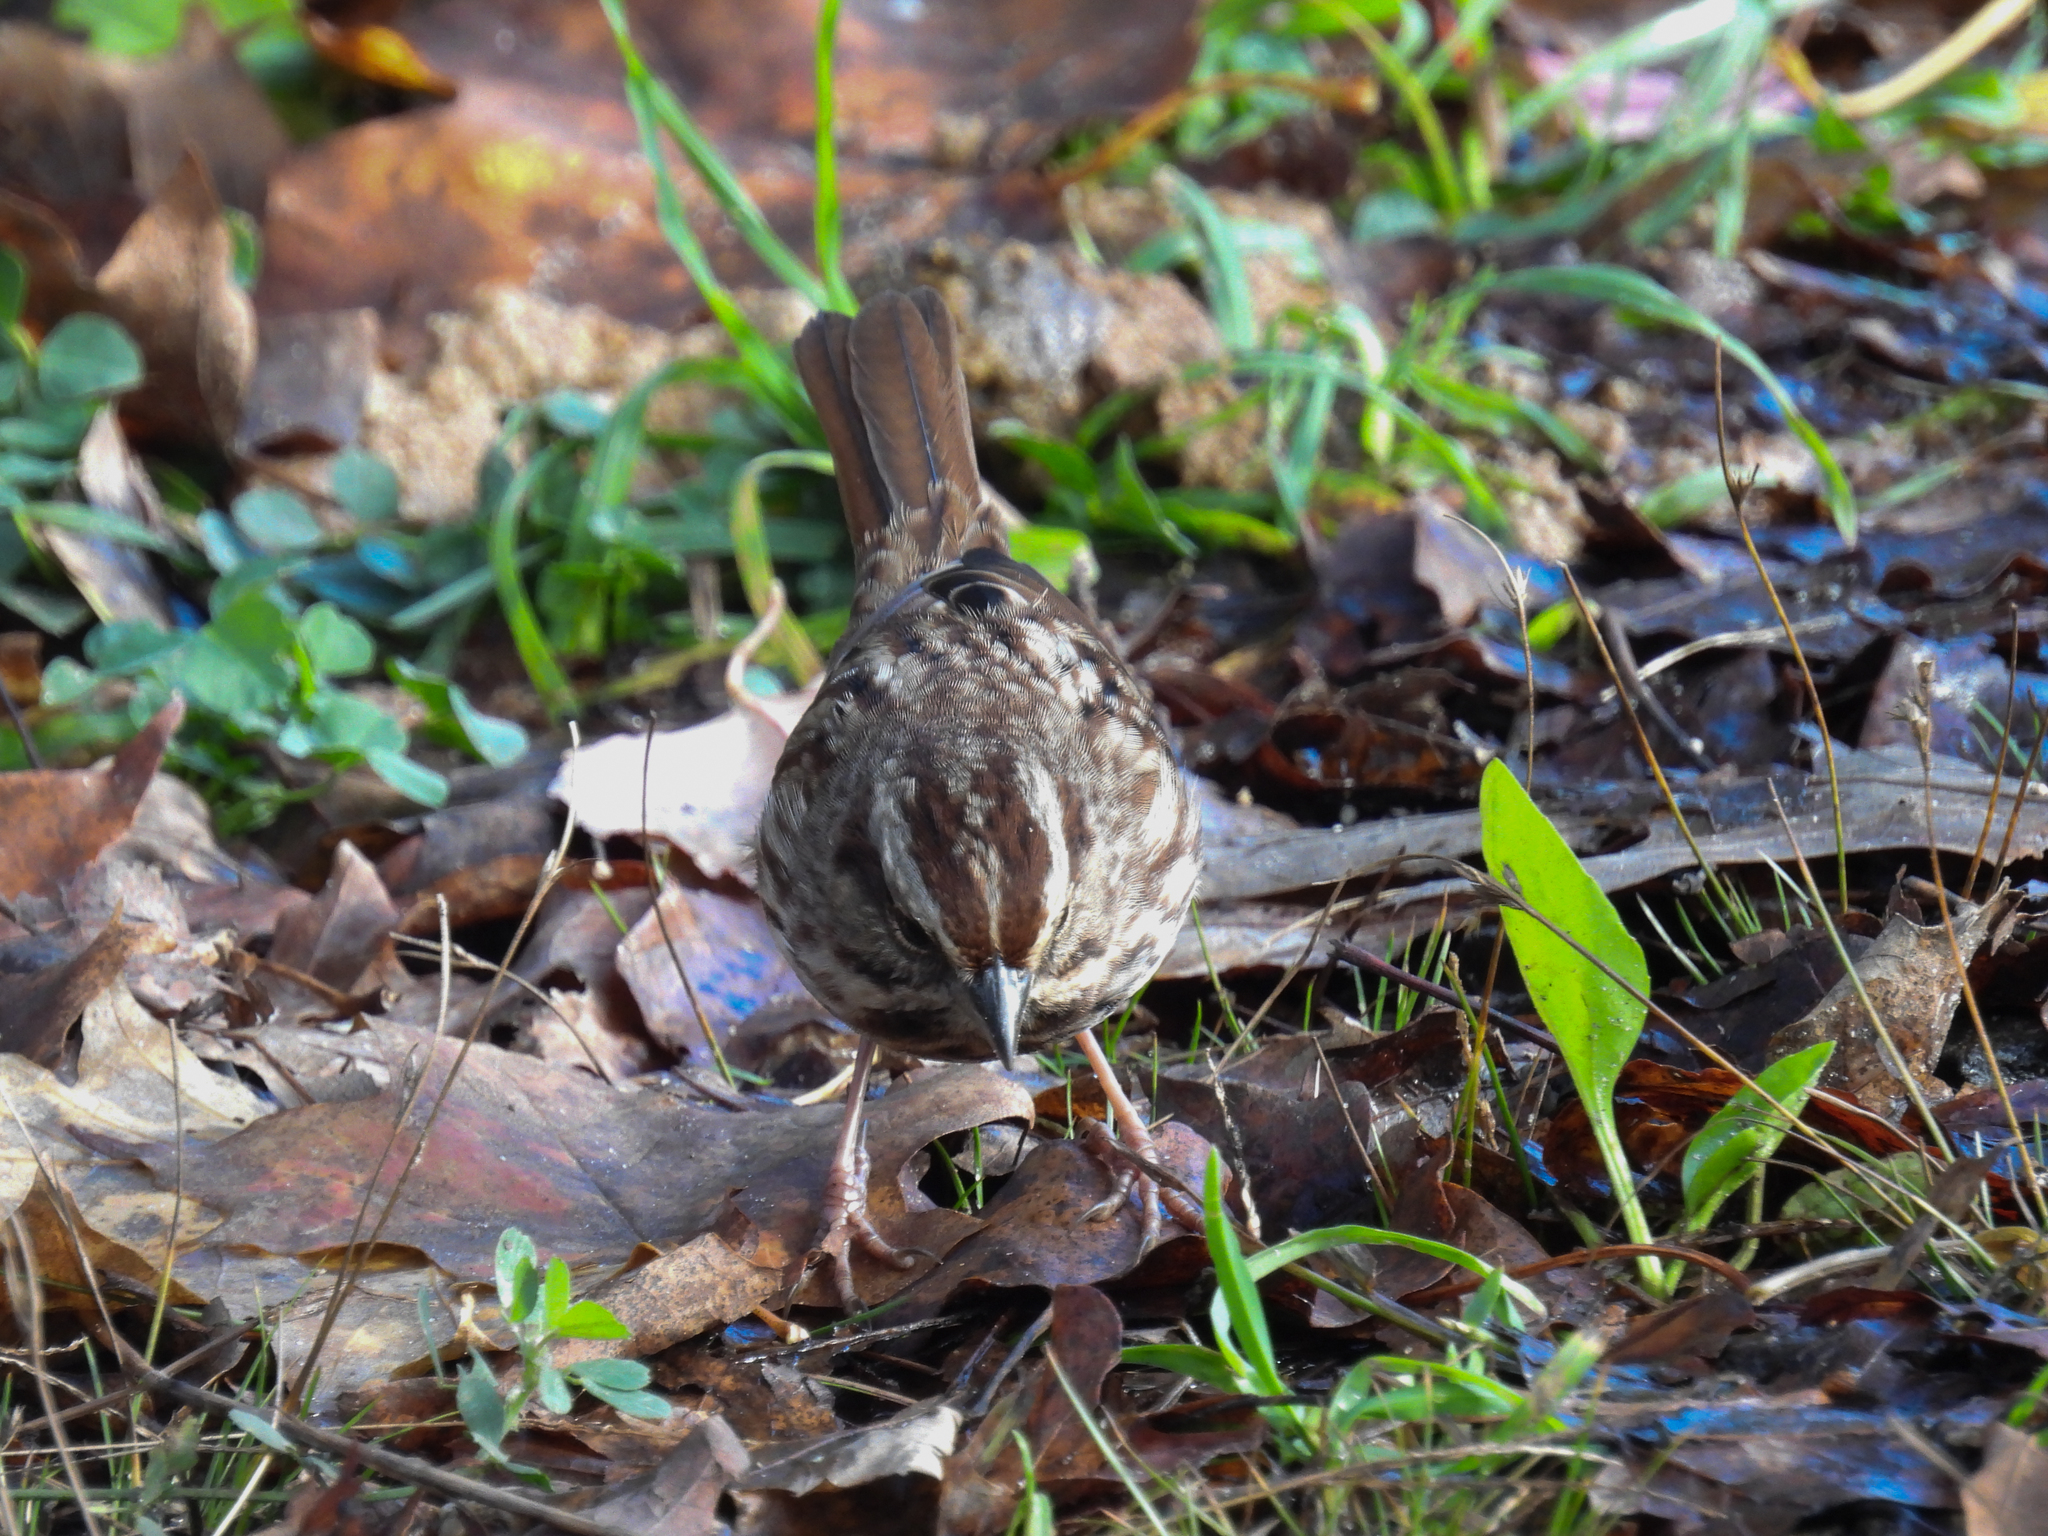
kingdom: Animalia
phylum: Chordata
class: Aves
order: Passeriformes
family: Passerellidae
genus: Melospiza
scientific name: Melospiza melodia
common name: Song sparrow
